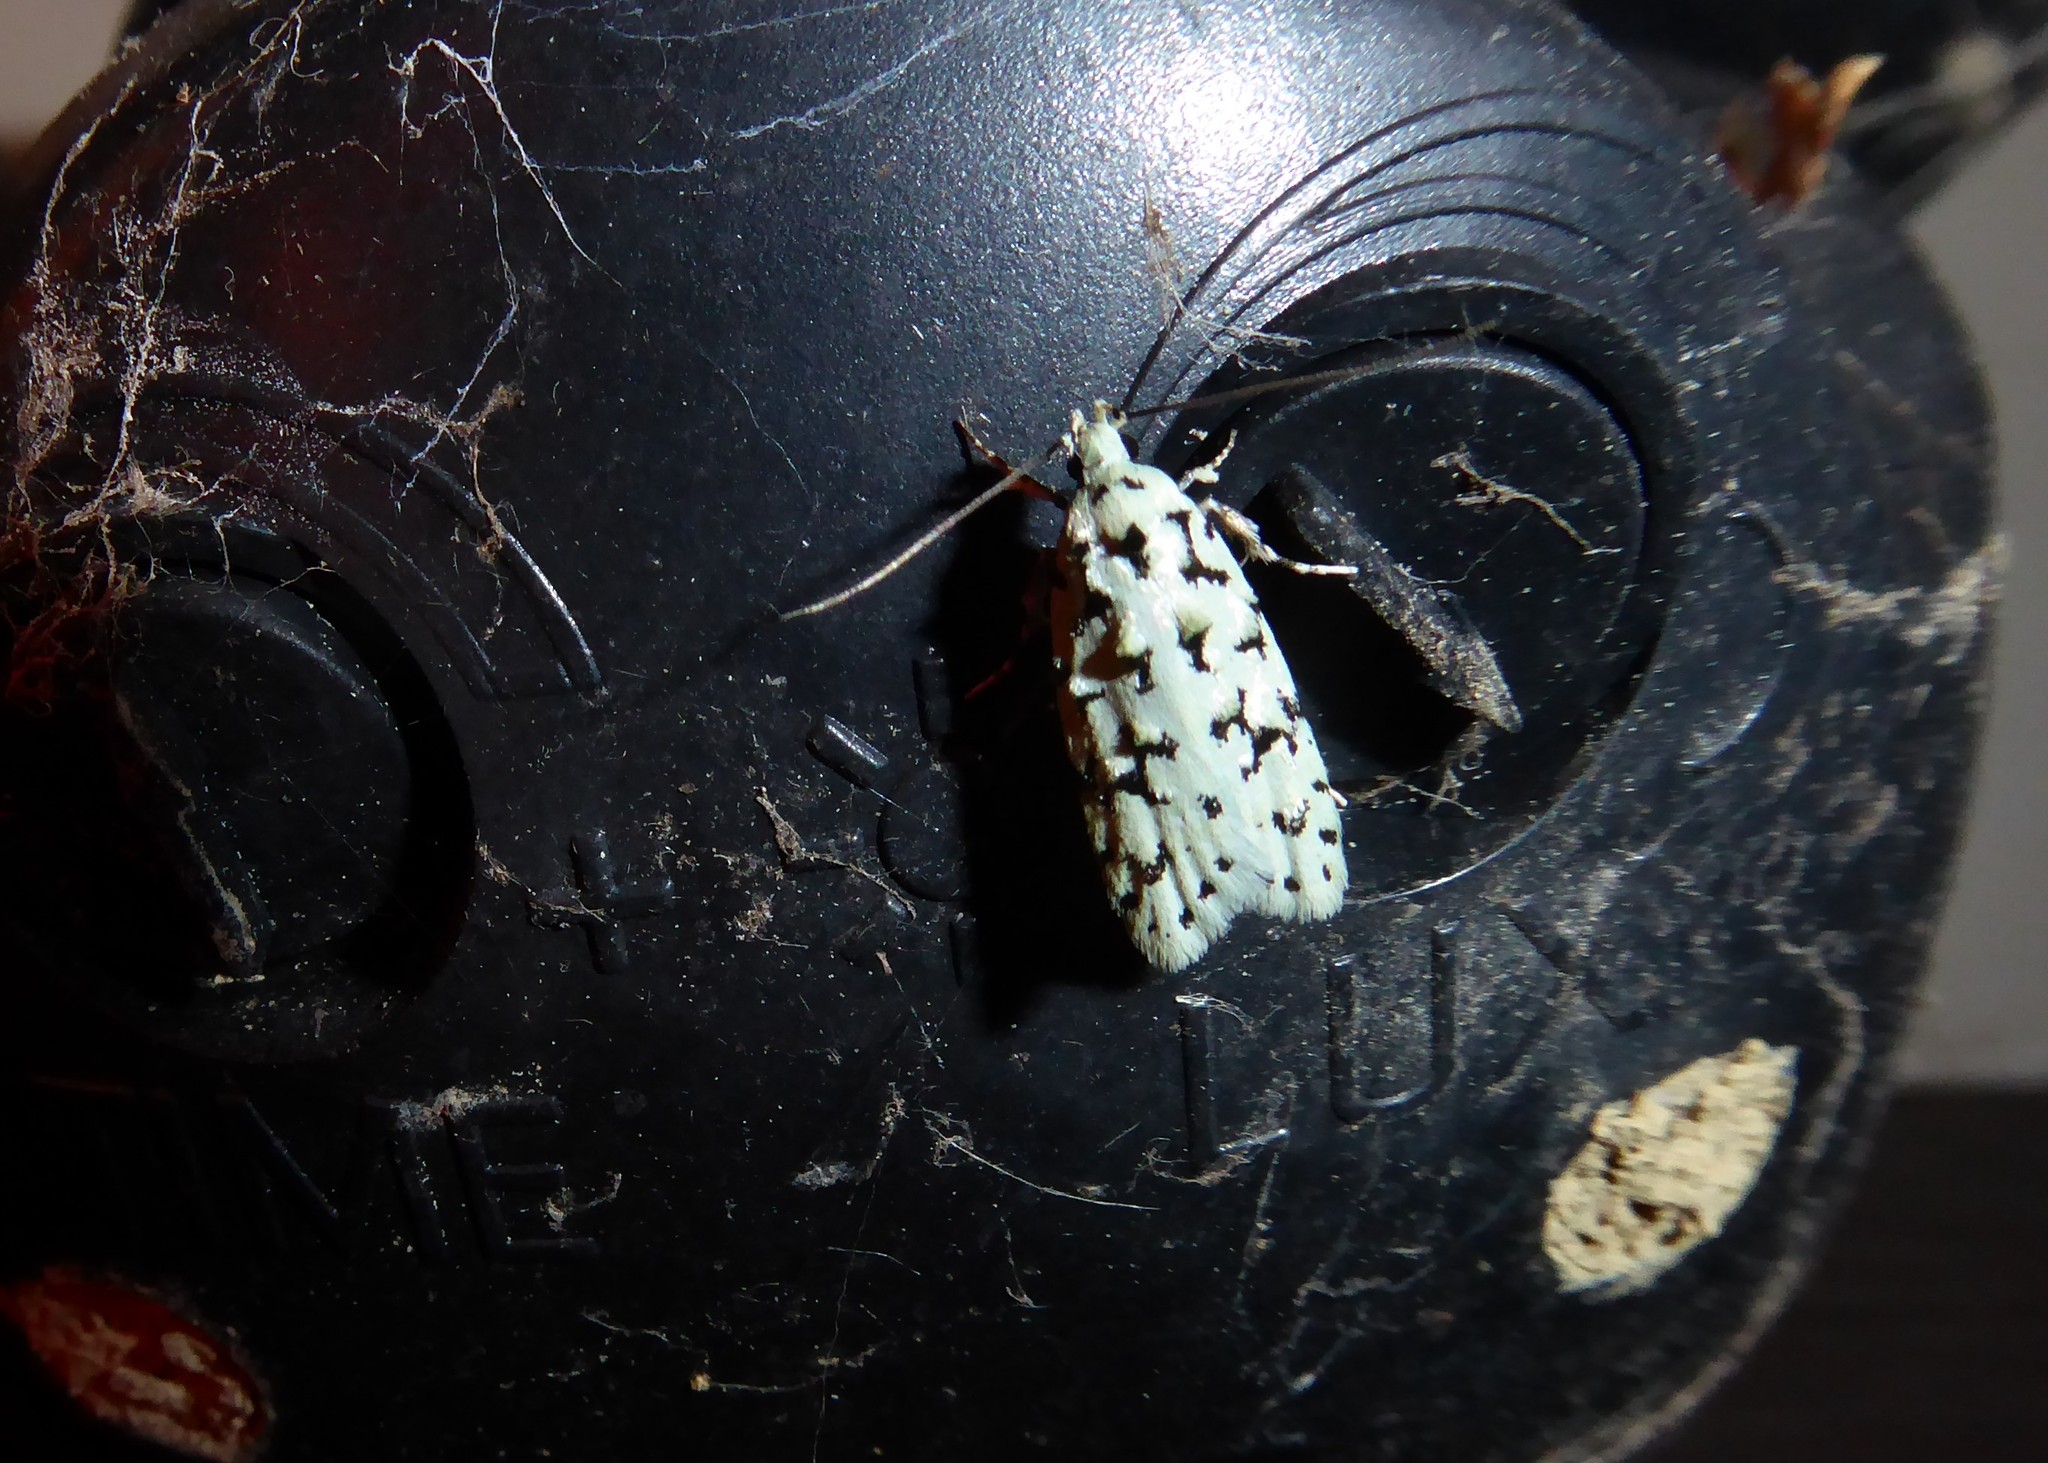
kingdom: Animalia
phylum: Arthropoda
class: Insecta
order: Lepidoptera
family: Oecophoridae
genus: Izatha
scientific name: Izatha huttoni
